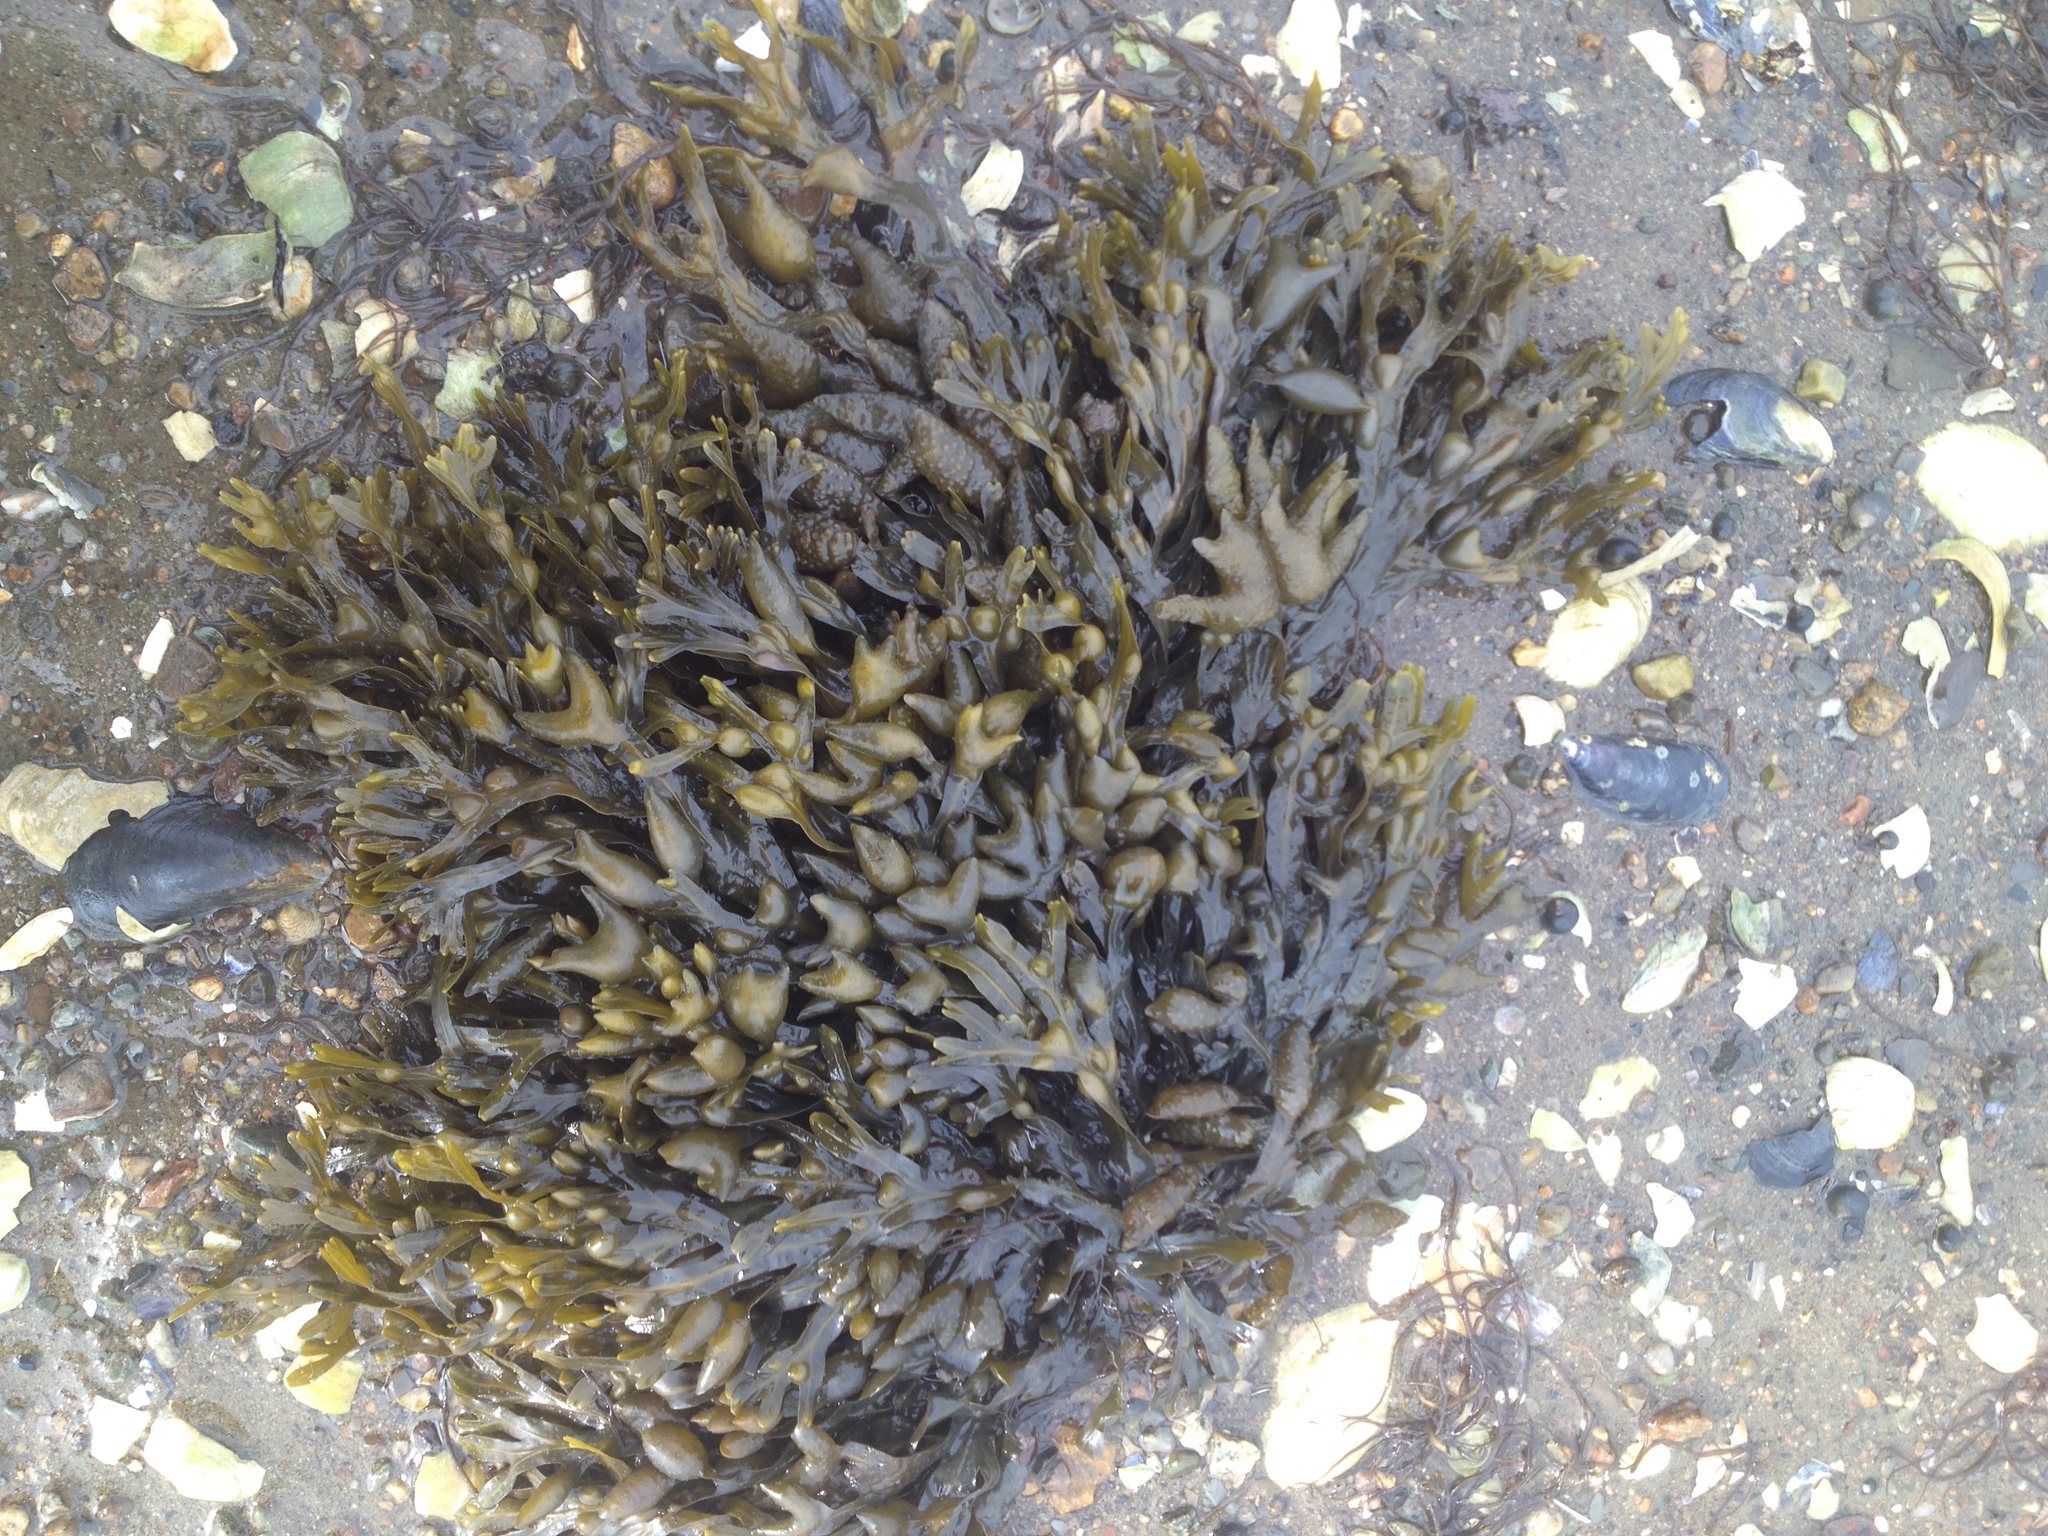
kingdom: Chromista
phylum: Ochrophyta
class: Phaeophyceae
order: Fucales
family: Fucaceae
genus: Fucus
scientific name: Fucus distichus
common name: Rockweed
